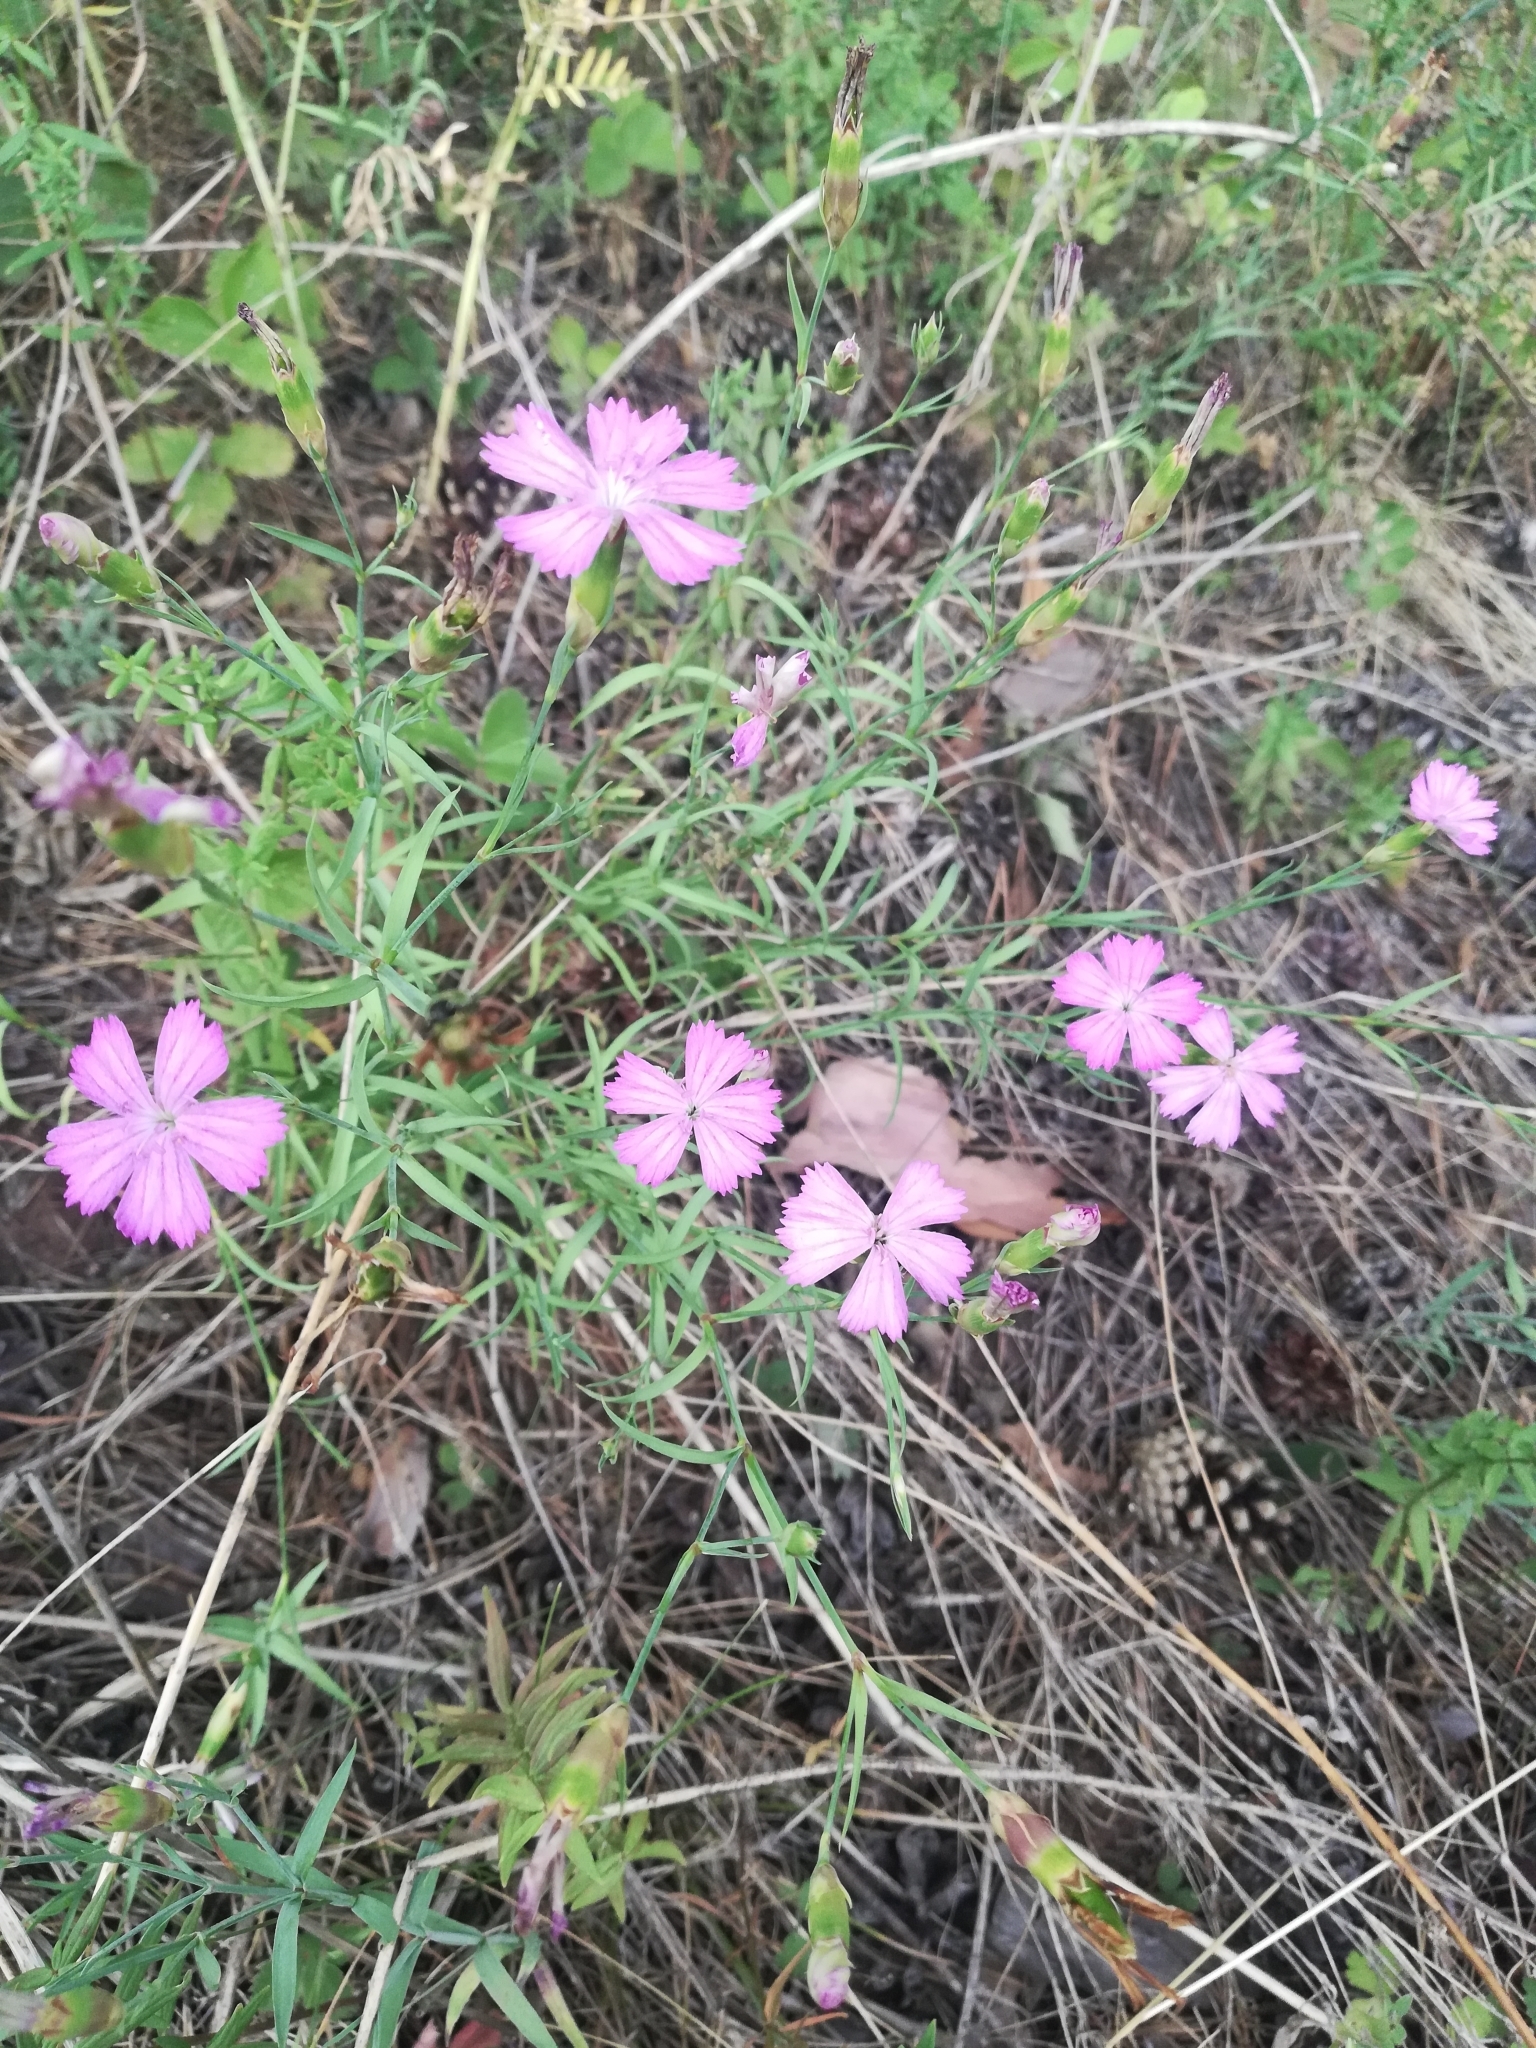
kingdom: Plantae
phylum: Tracheophyta
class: Magnoliopsida
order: Caryophyllales
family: Caryophyllaceae
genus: Dianthus
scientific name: Dianthus chinensis
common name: Rainbow pink
